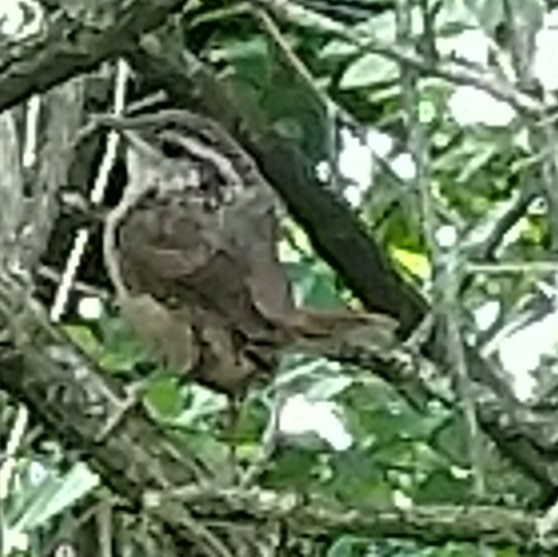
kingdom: Animalia
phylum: Chordata
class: Aves
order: Passeriformes
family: Troglodytidae
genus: Thryothorus
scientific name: Thryothorus ludovicianus
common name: Carolina wren
